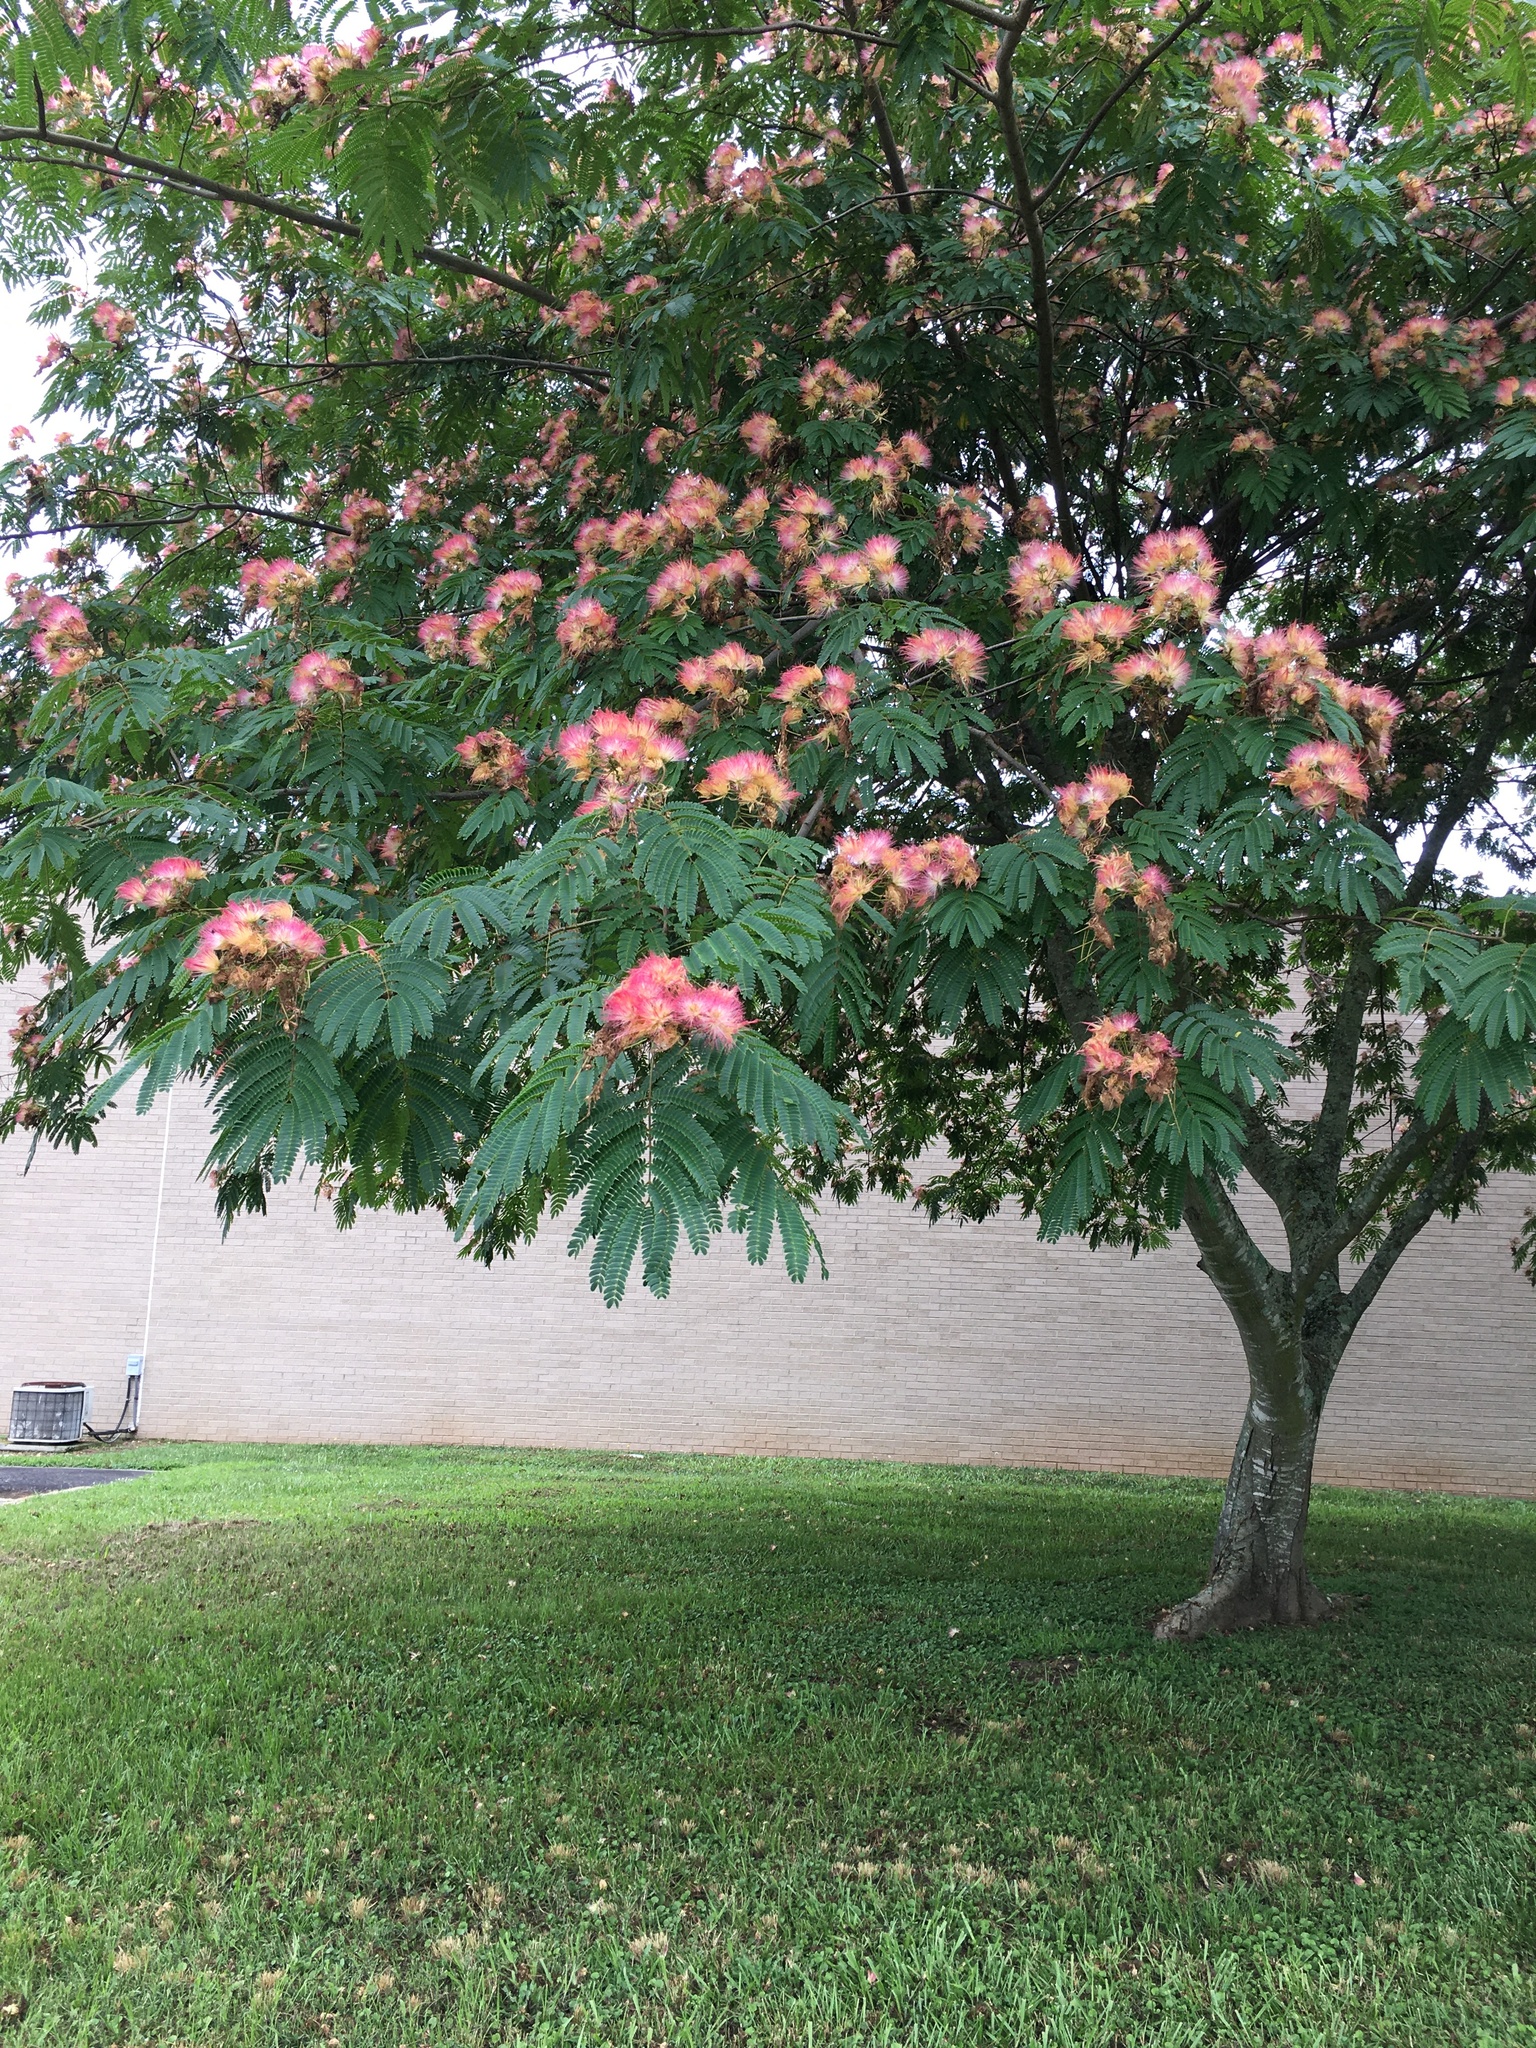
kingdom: Plantae
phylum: Tracheophyta
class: Magnoliopsida
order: Fabales
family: Fabaceae
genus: Albizia
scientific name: Albizia julibrissin
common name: Silktree
